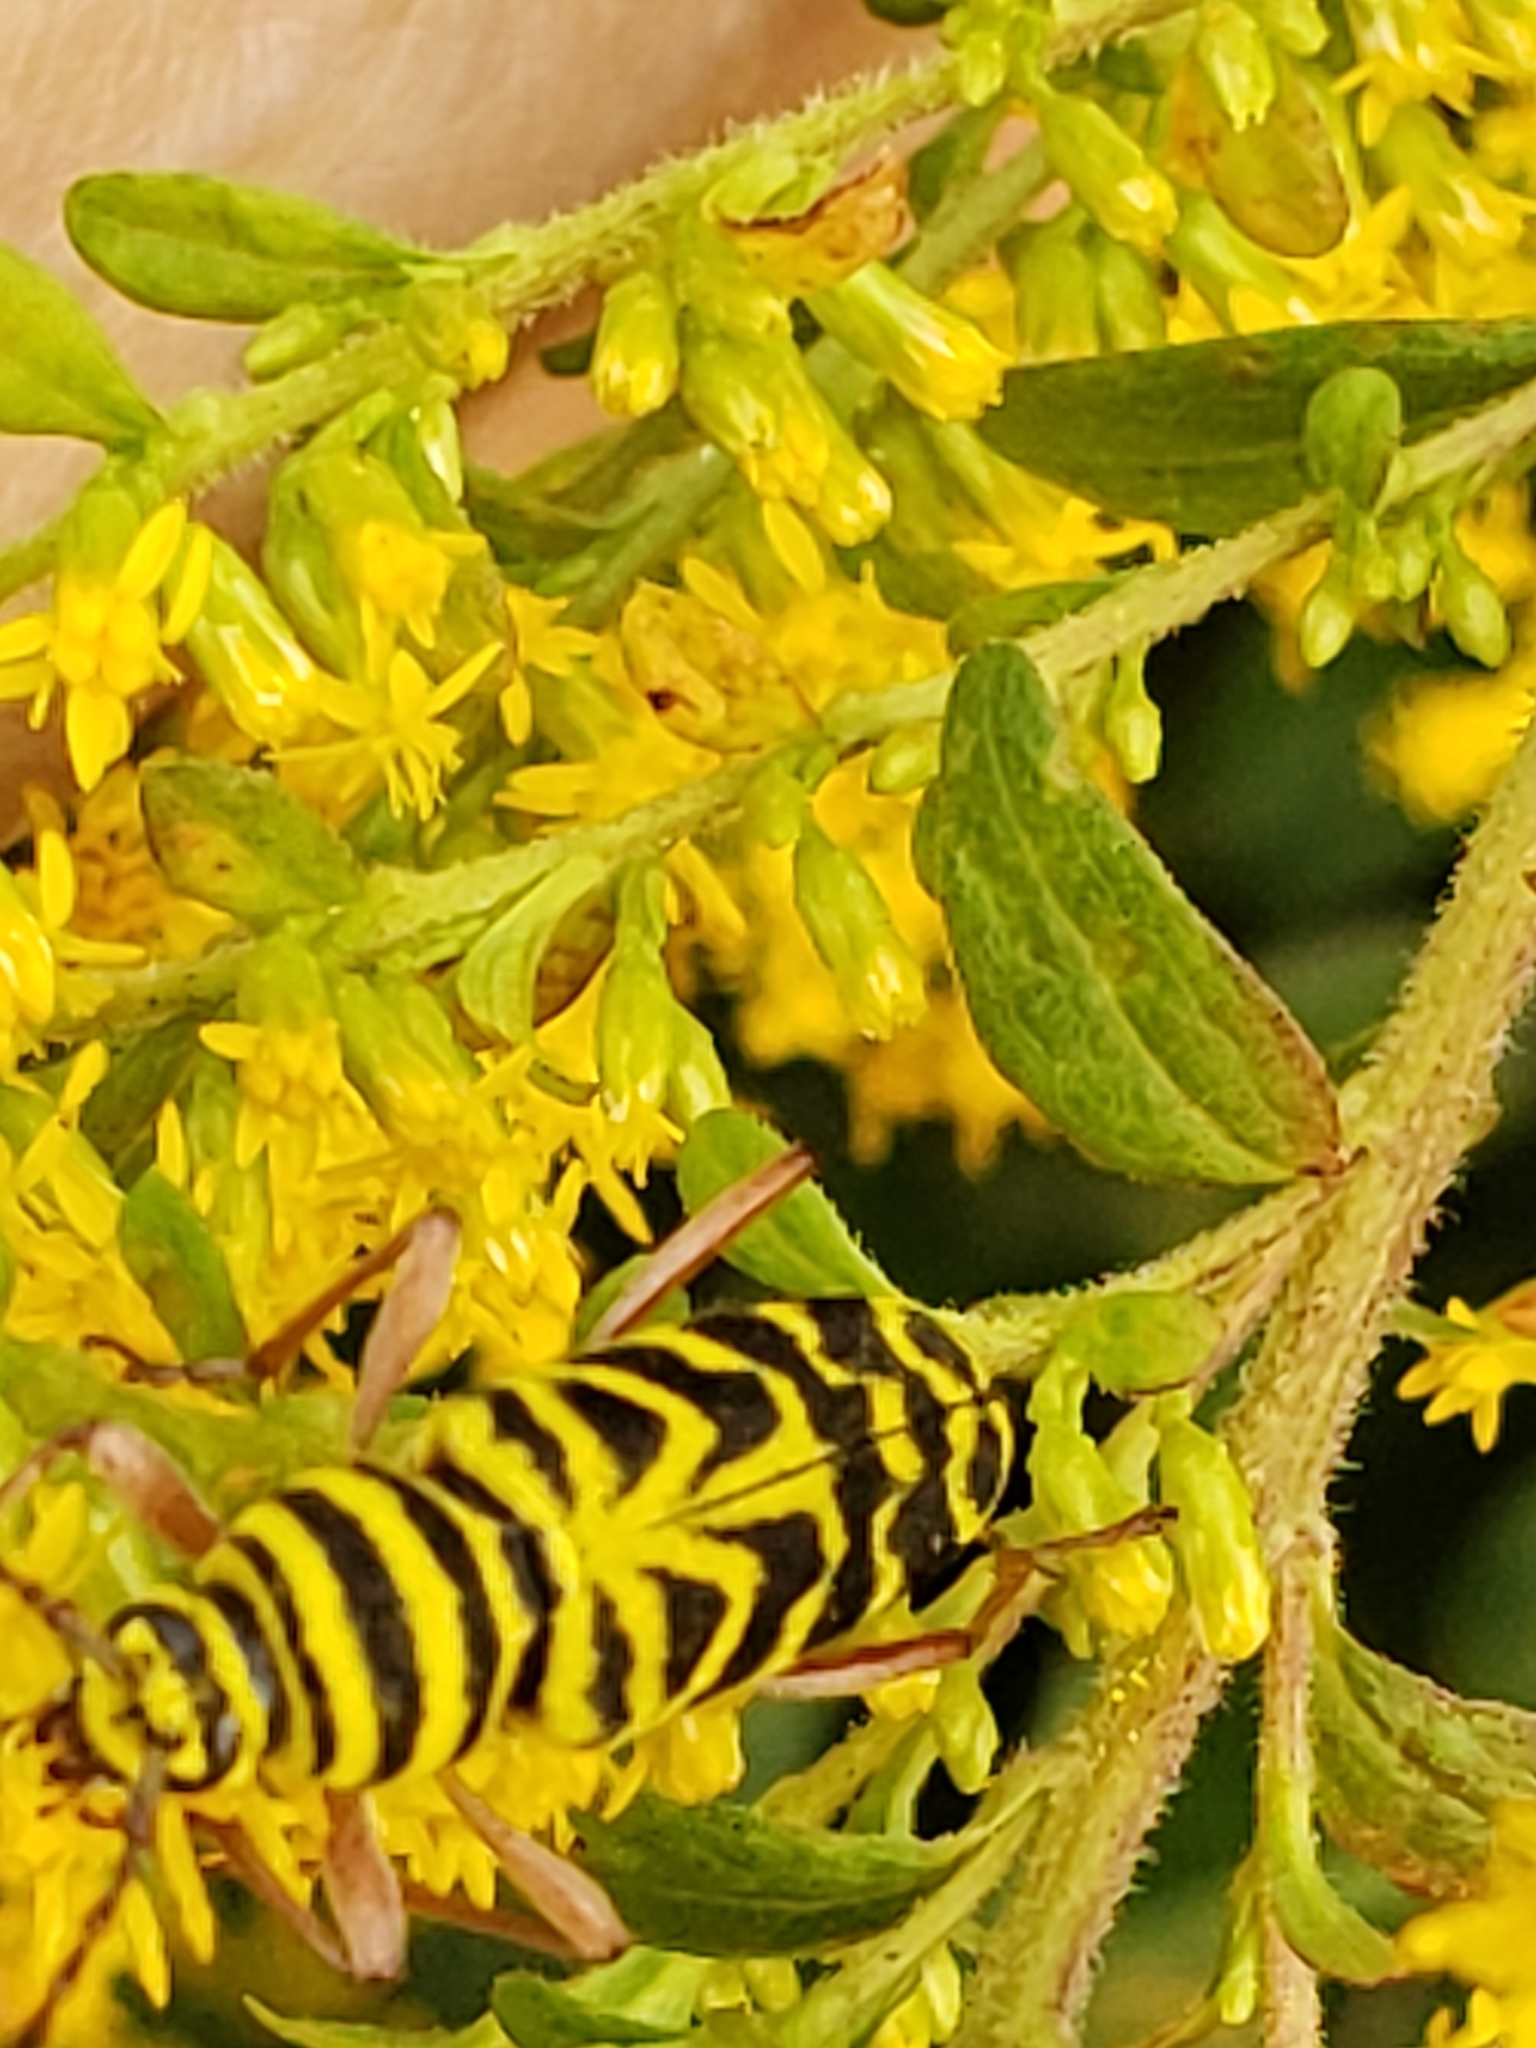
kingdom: Animalia
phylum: Arthropoda
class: Insecta
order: Coleoptera
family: Cerambycidae
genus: Megacyllene
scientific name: Megacyllene robiniae
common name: Locust borer
